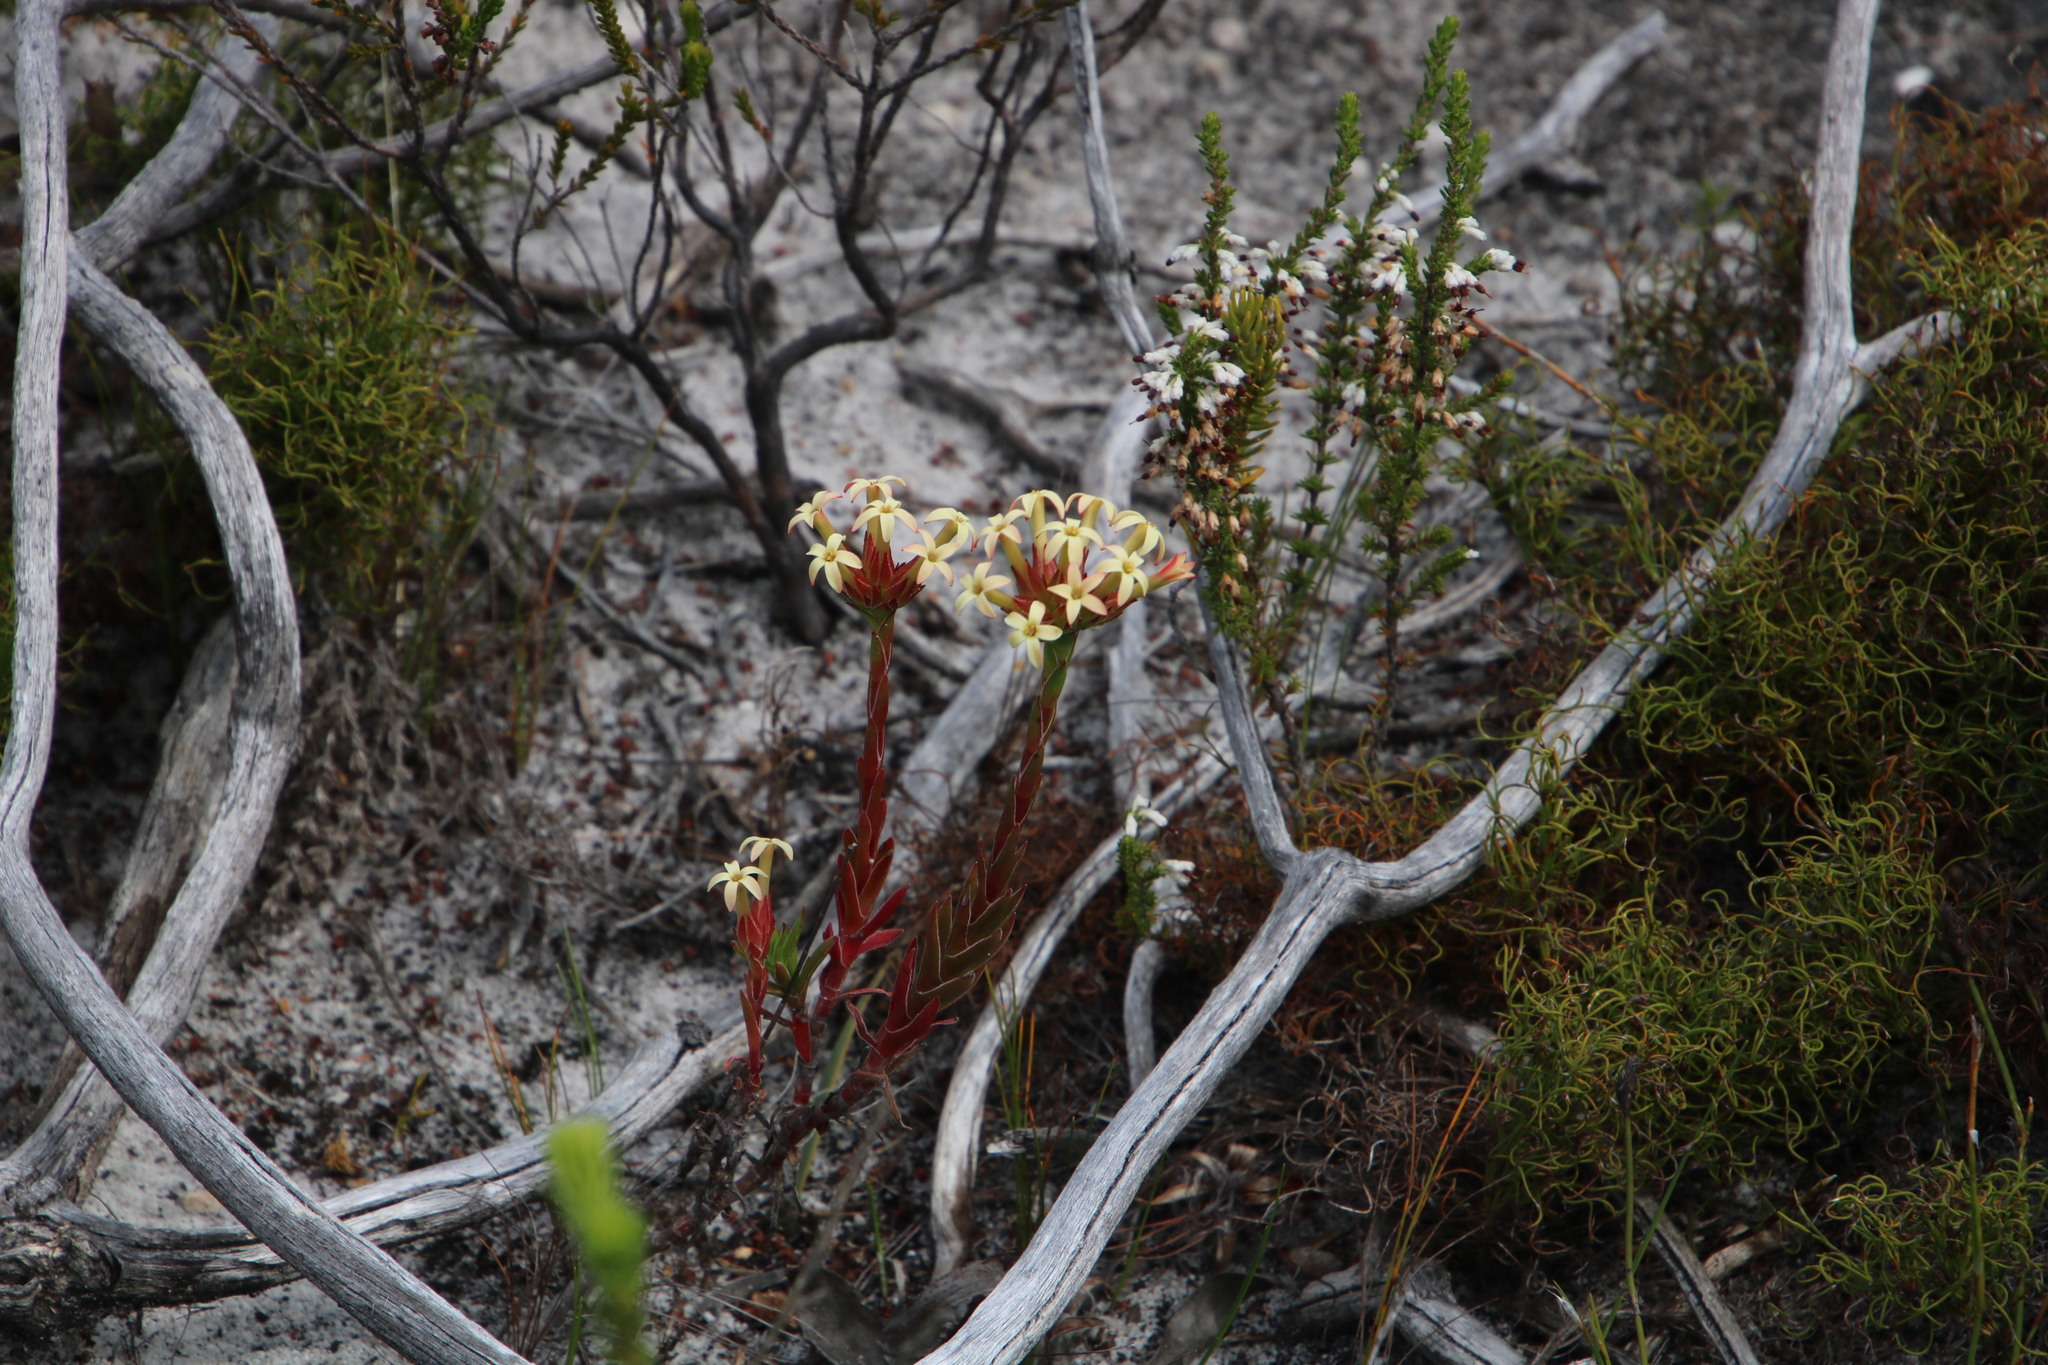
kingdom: Plantae
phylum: Tracheophyta
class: Magnoliopsida
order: Saxifragales
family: Crassulaceae
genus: Crassula
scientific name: Crassula fascicularis
